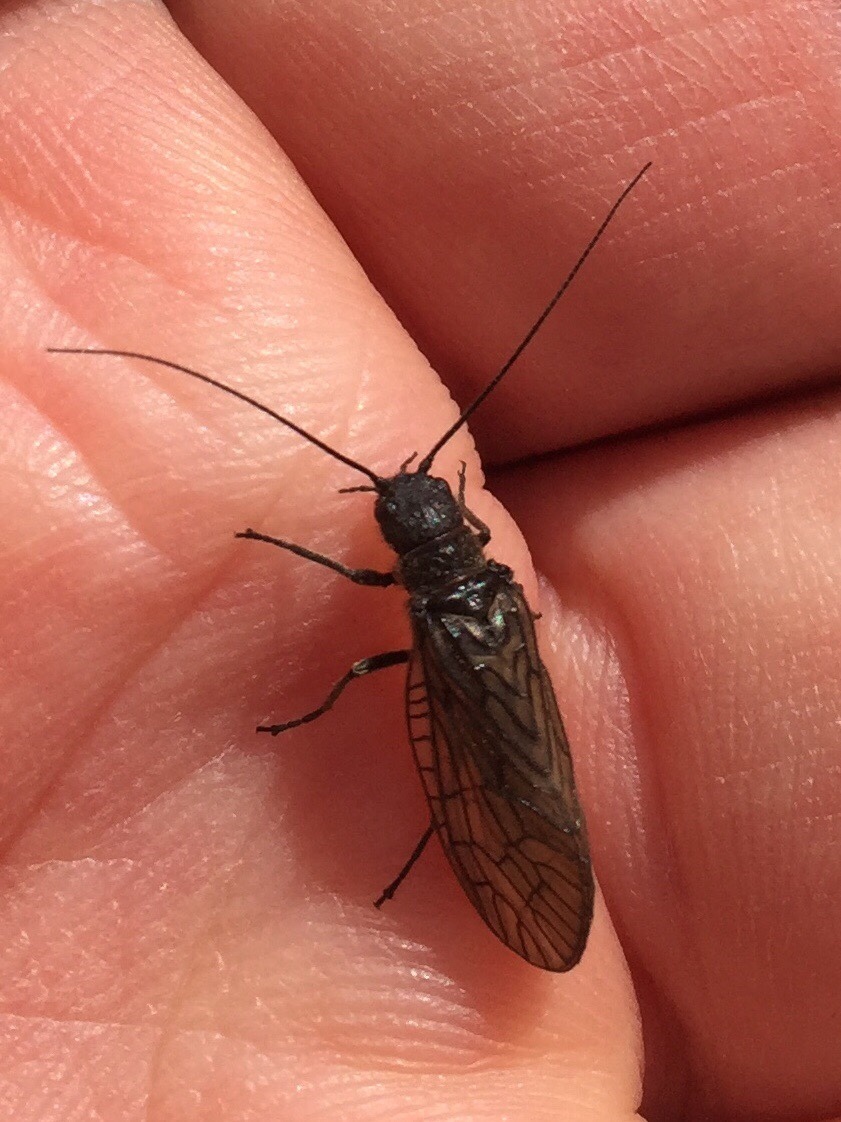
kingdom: Animalia
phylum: Arthropoda
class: Insecta
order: Megaloptera
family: Sialidae
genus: Sialis
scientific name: Sialis
